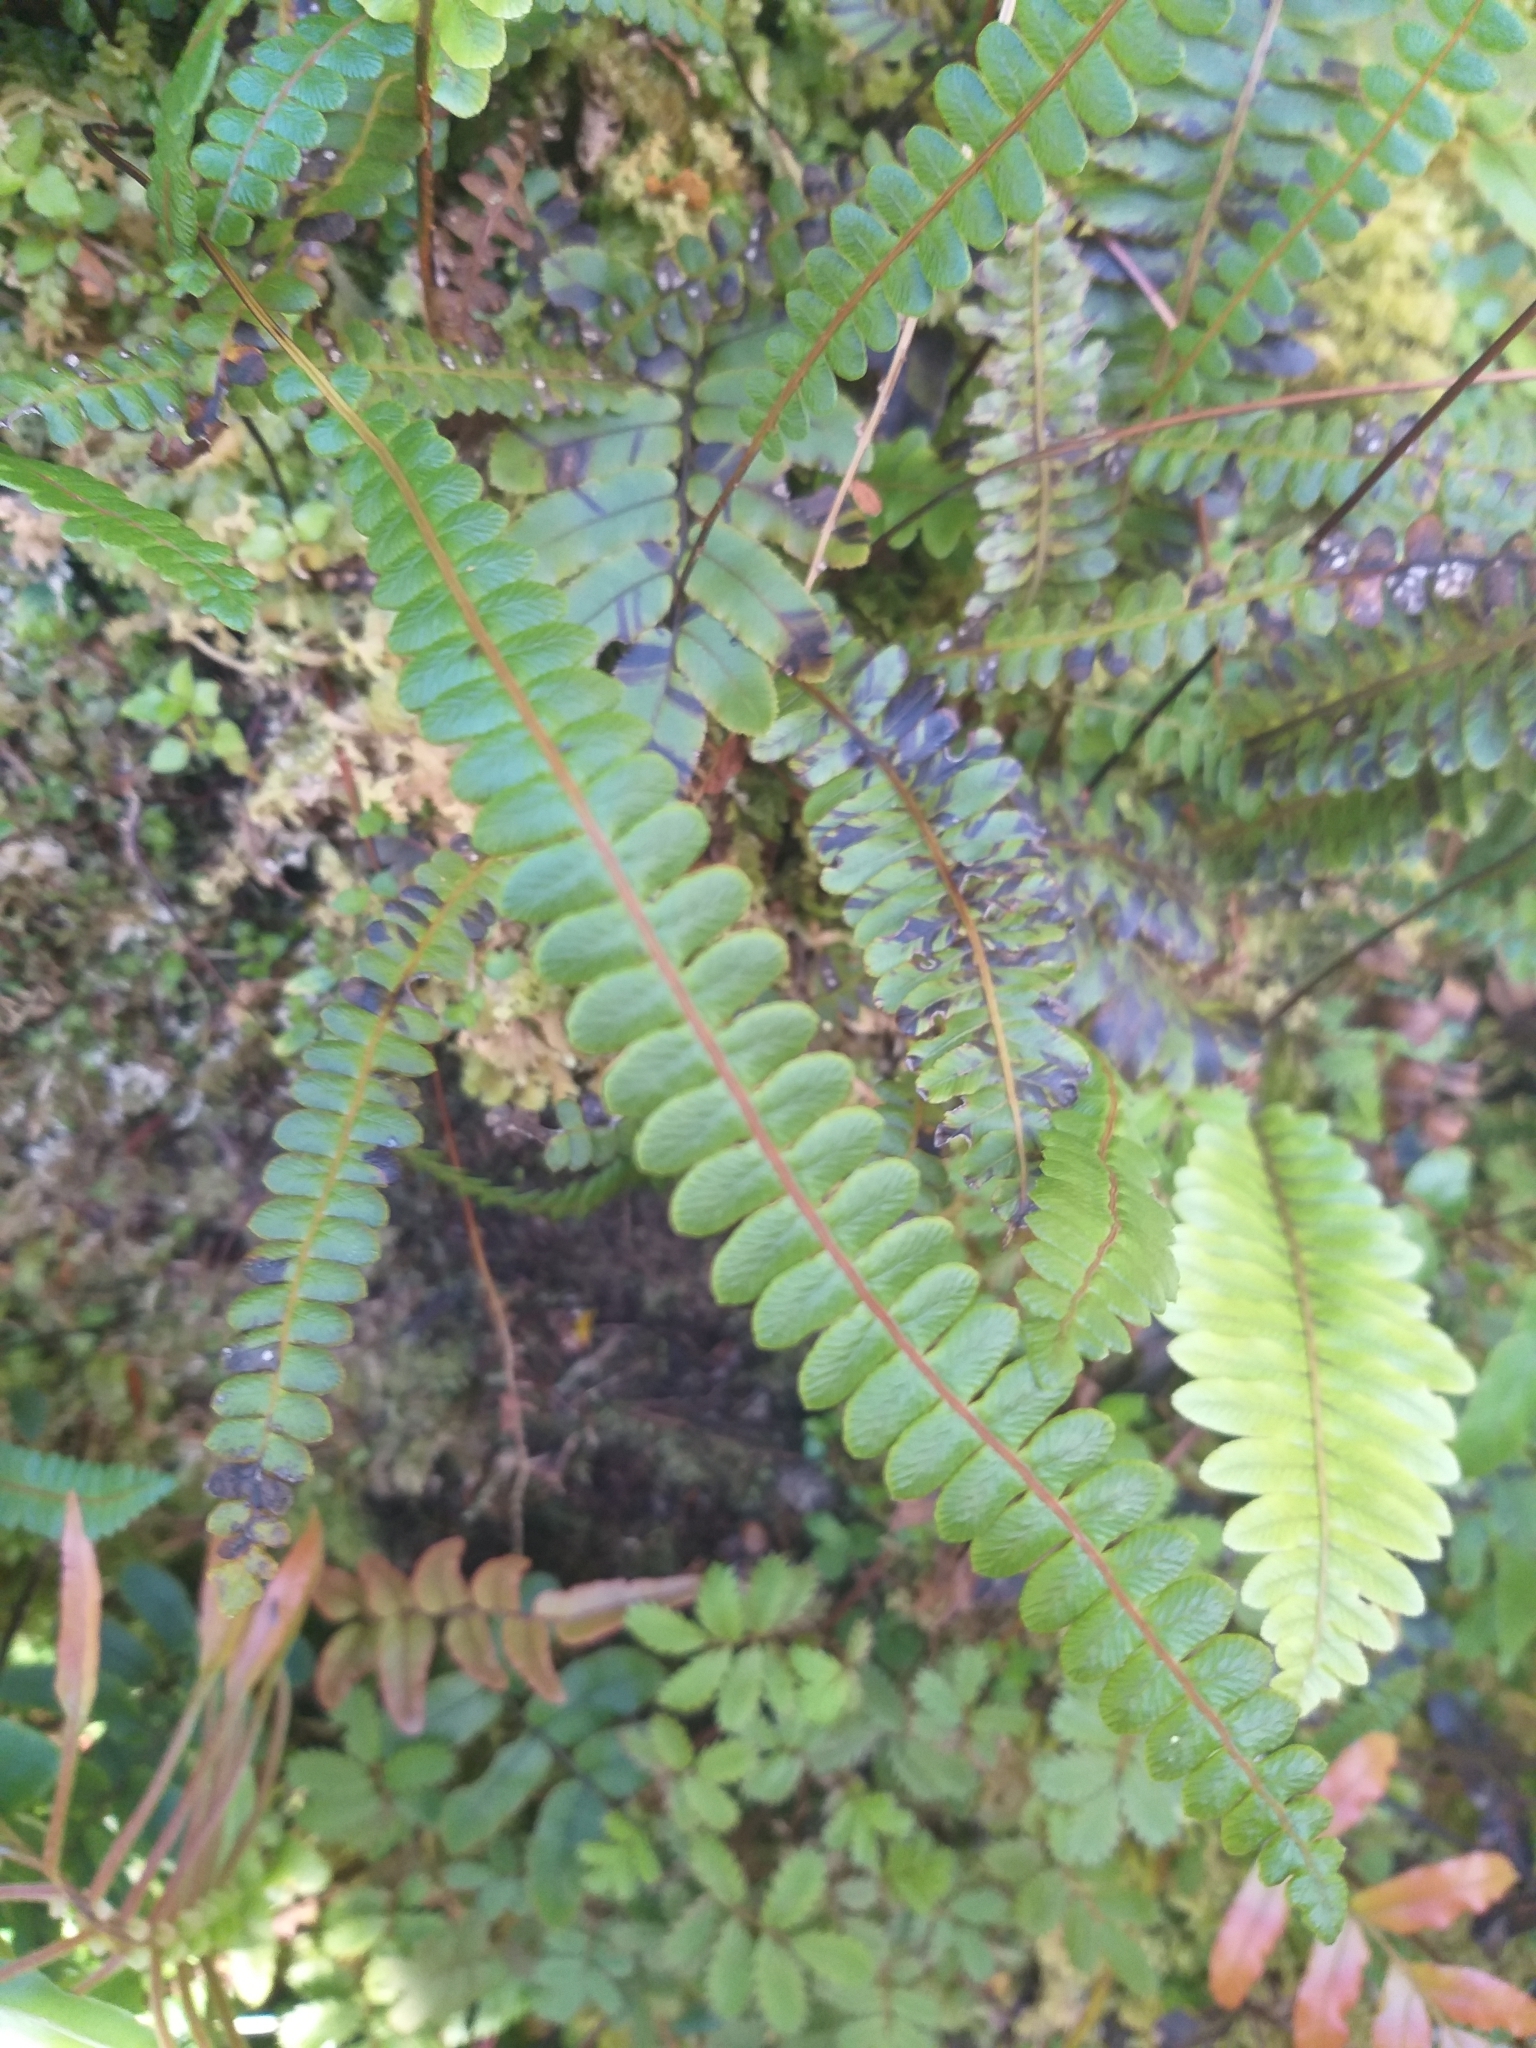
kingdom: Plantae
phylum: Tracheophyta
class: Polypodiopsida
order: Polypodiales
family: Blechnaceae
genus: Austroblechnum
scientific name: Austroblechnum penna-marina
